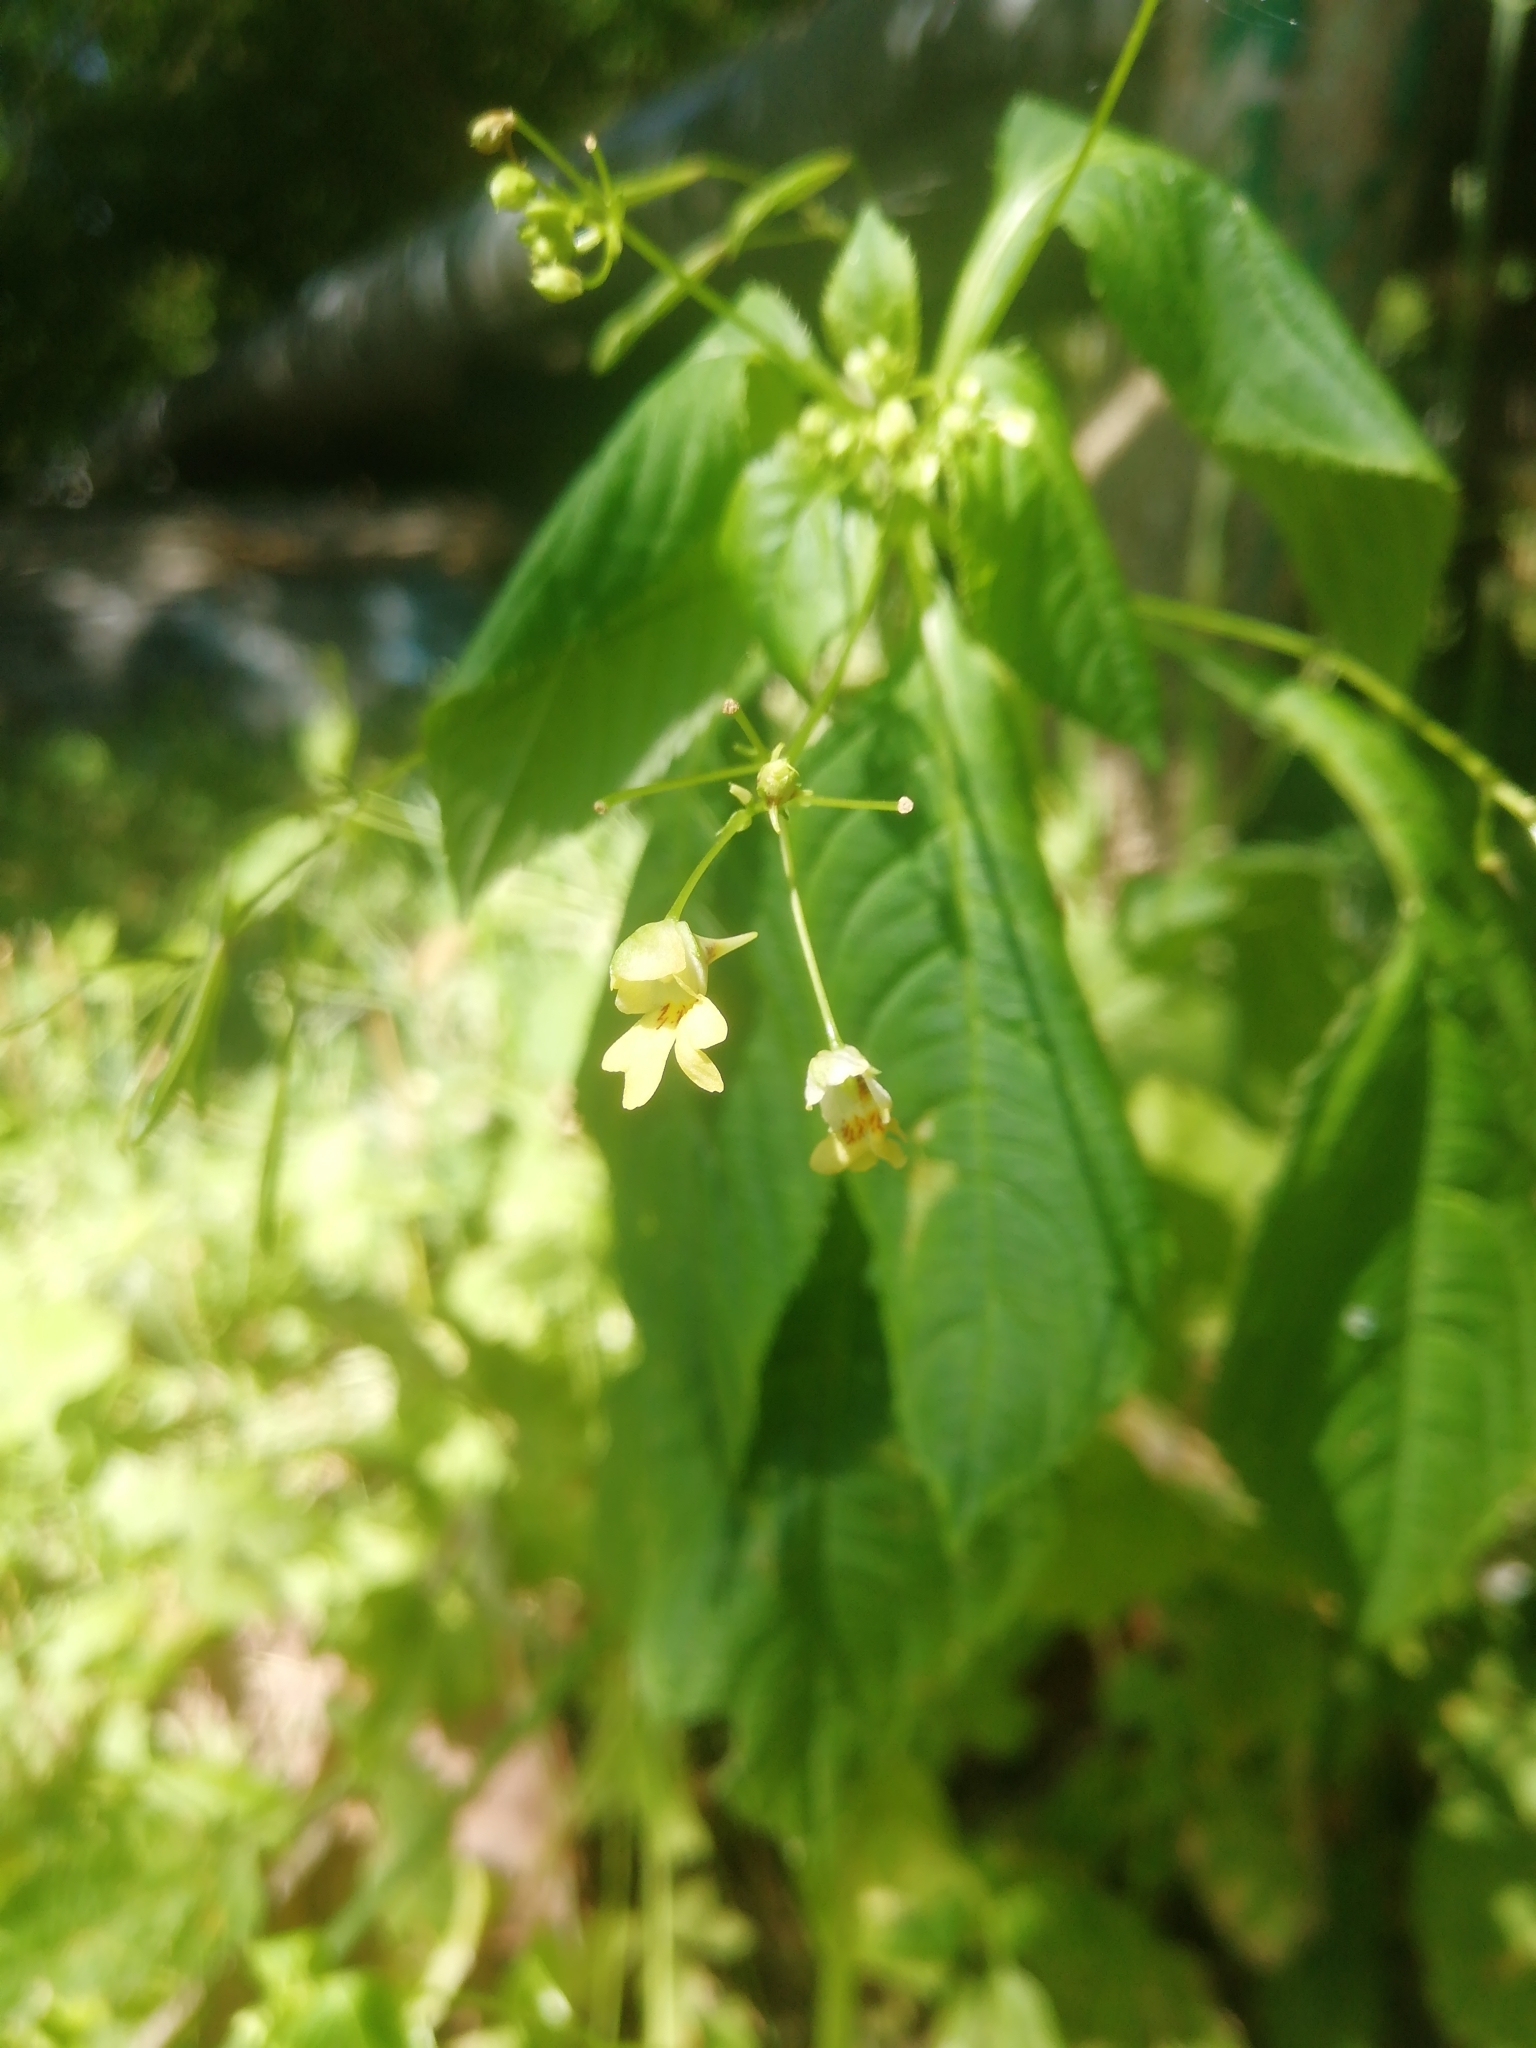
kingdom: Plantae
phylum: Tracheophyta
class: Magnoliopsida
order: Ericales
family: Balsaminaceae
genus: Impatiens
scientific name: Impatiens parviflora
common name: Small balsam
